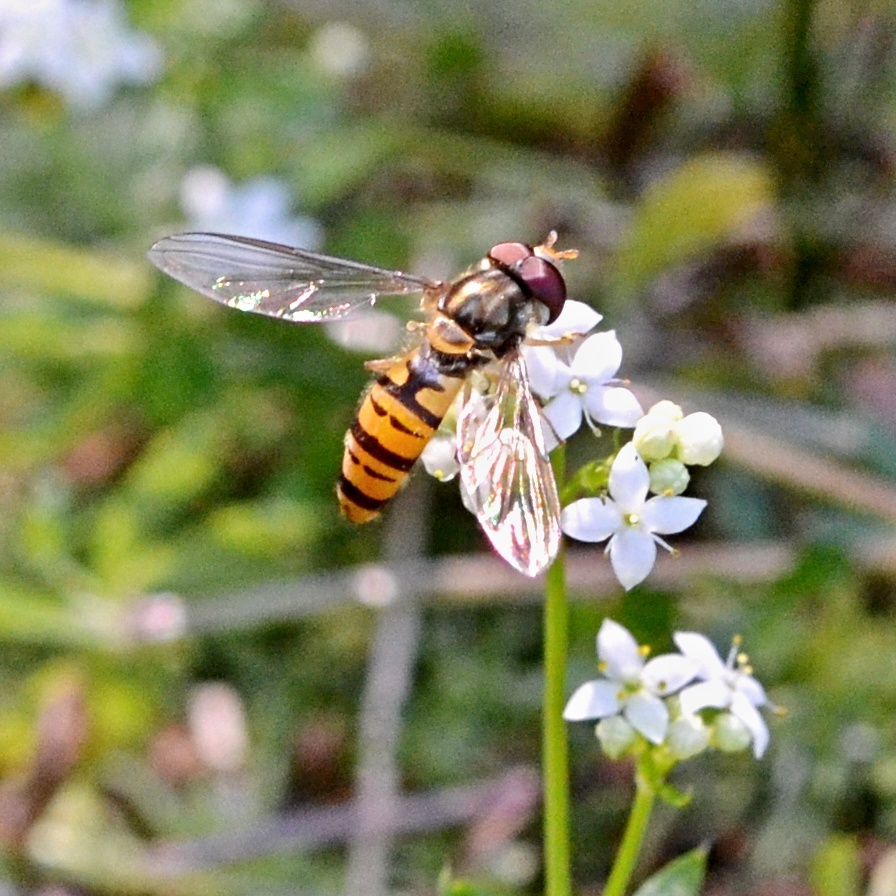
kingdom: Animalia
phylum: Arthropoda
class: Insecta
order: Diptera
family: Syrphidae
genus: Episyrphus
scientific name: Episyrphus balteatus
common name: Marmalade hoverfly
